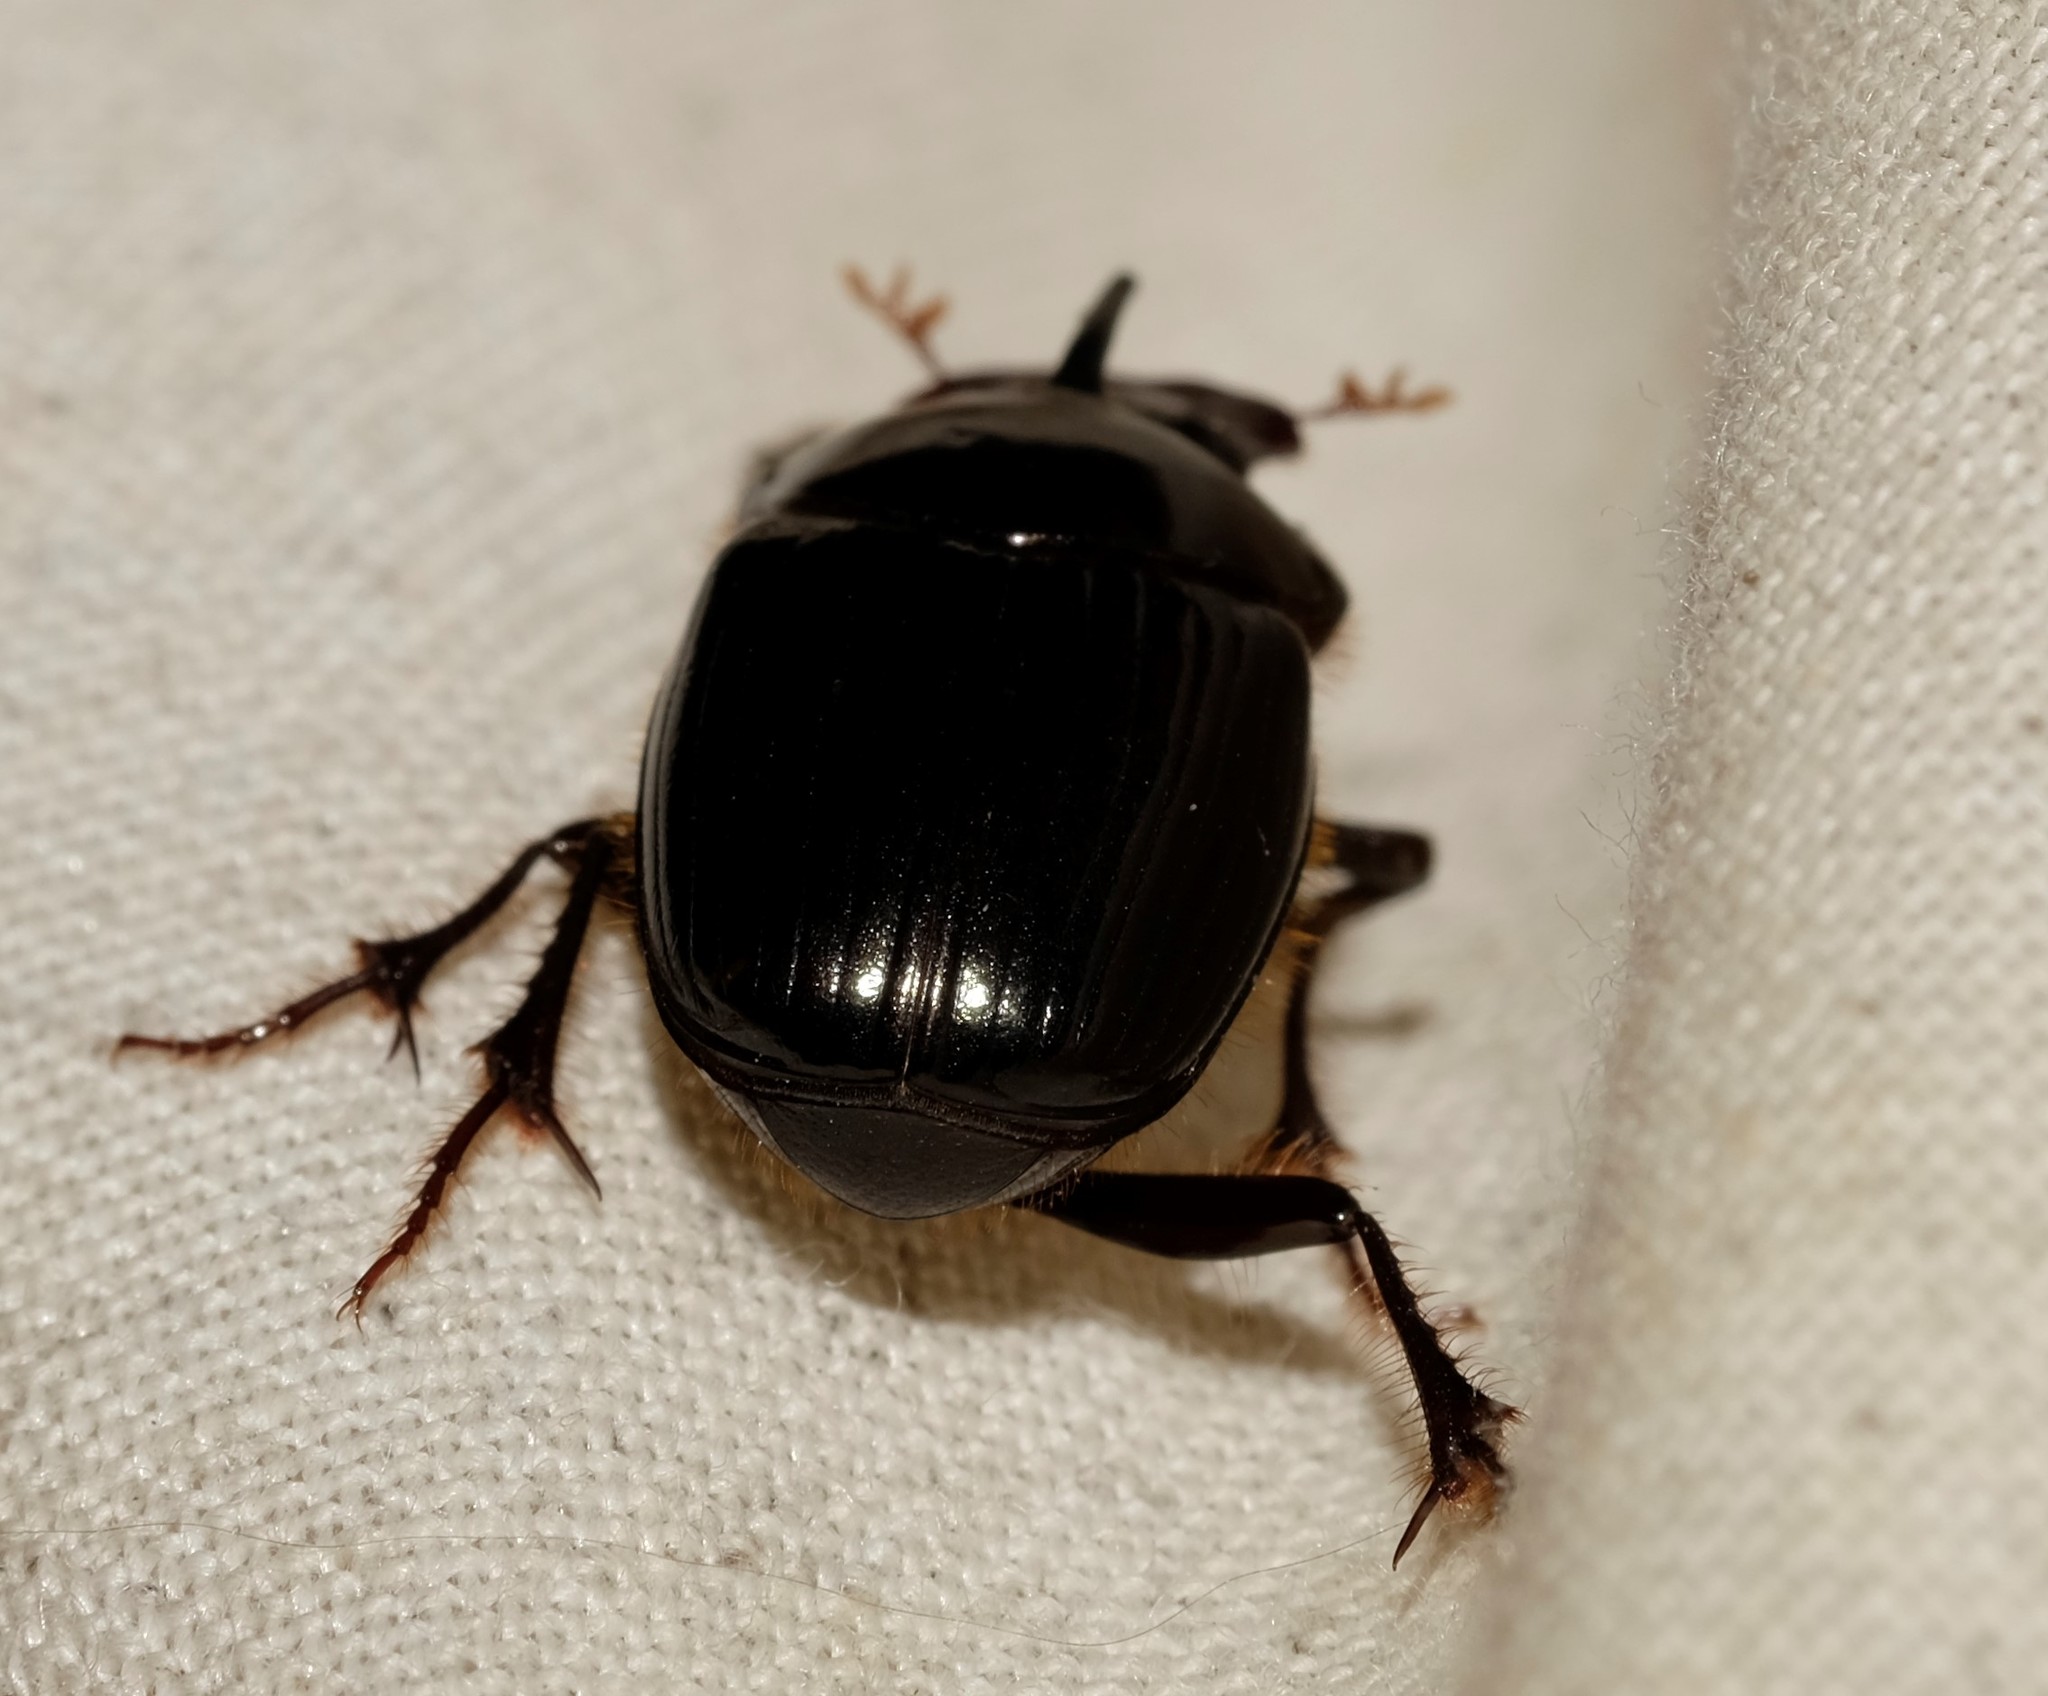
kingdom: Animalia
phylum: Arthropoda
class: Insecta
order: Coleoptera
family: Scarabaeidae
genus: Onthophagus
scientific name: Onthophagus pronus
